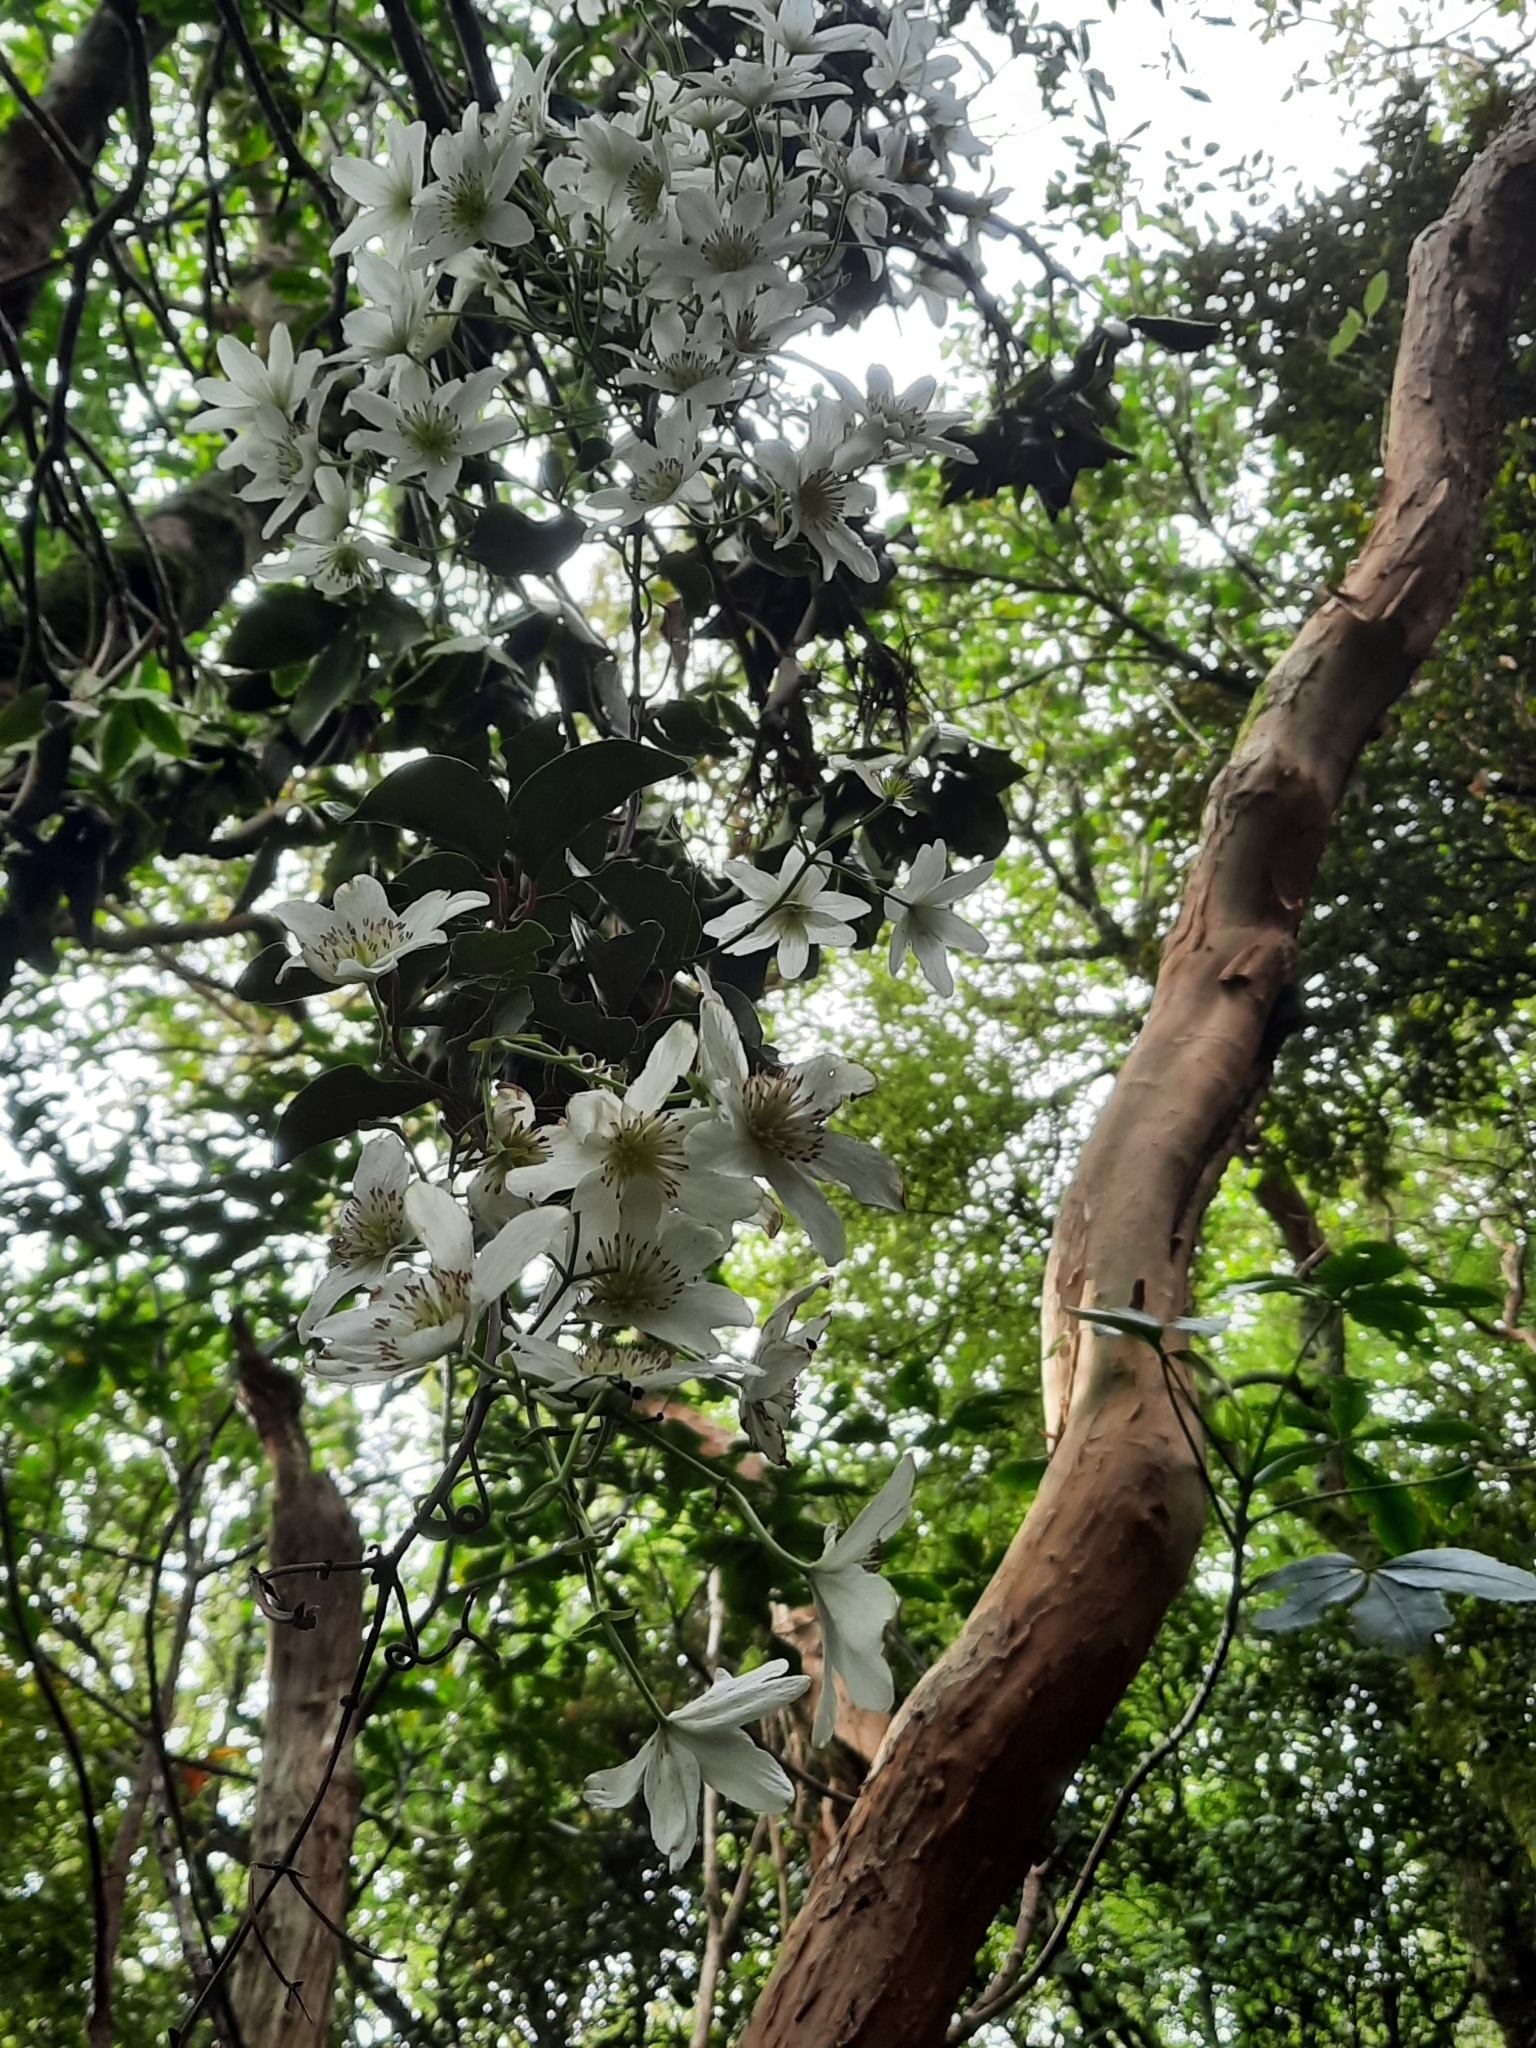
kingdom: Plantae
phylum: Tracheophyta
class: Magnoliopsida
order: Ranunculales
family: Ranunculaceae
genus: Clematis
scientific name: Clematis paniculata
